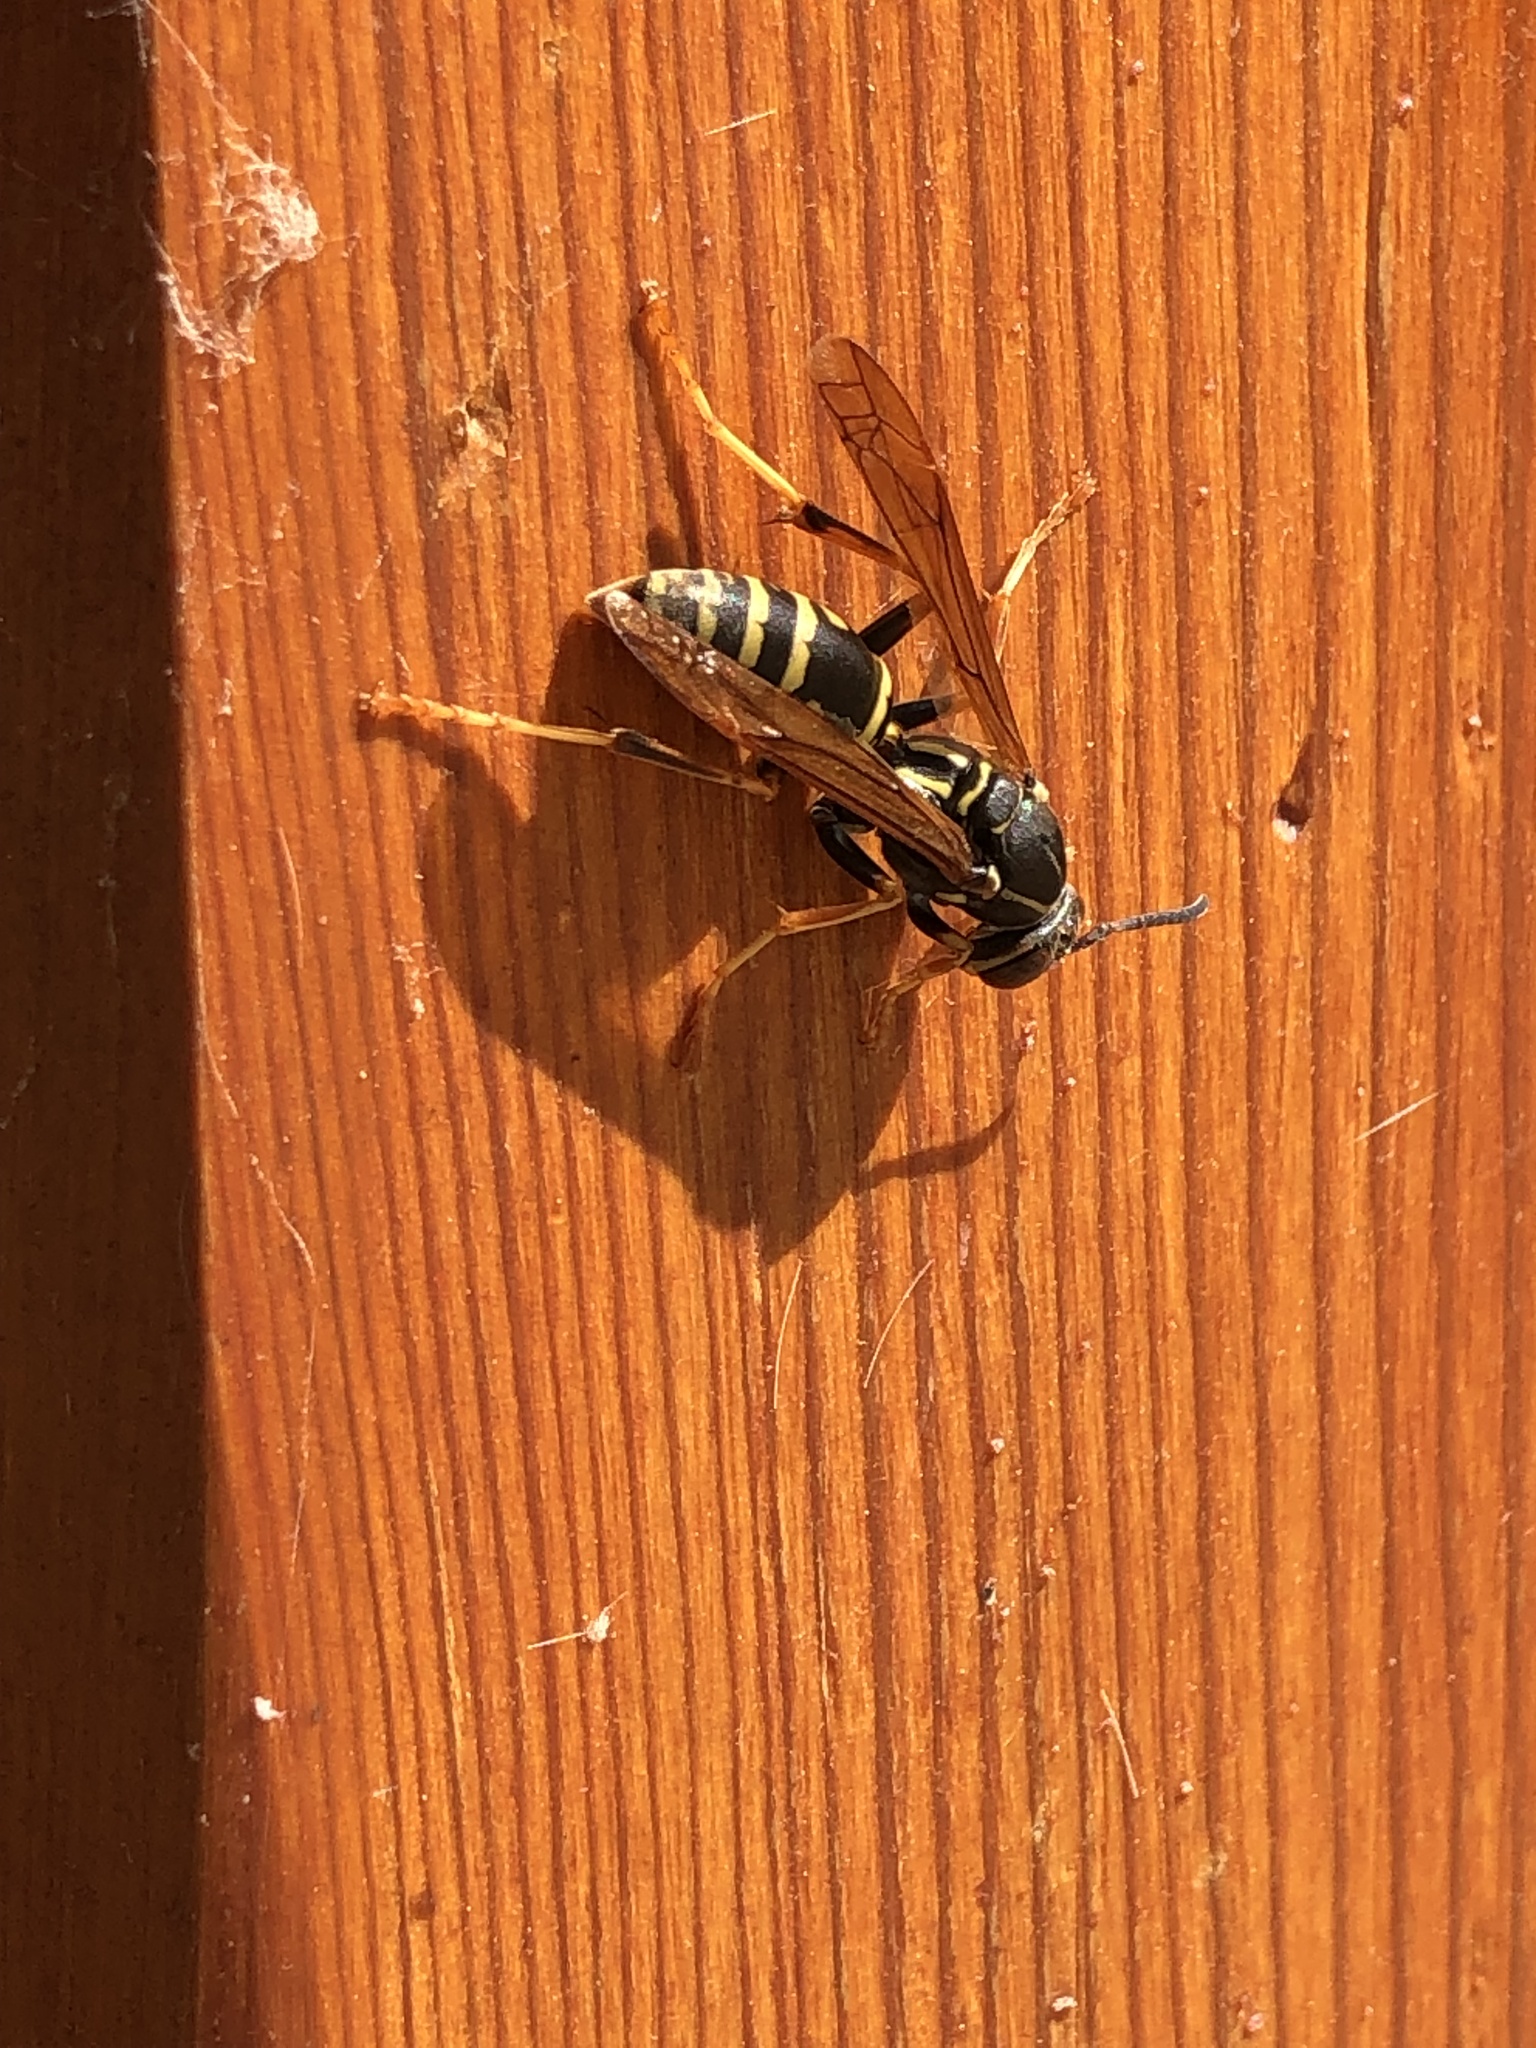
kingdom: Animalia
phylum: Arthropoda
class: Insecta
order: Hymenoptera
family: Eumenidae
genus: Polistes
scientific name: Polistes fuscatus
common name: Dark paper wasp
